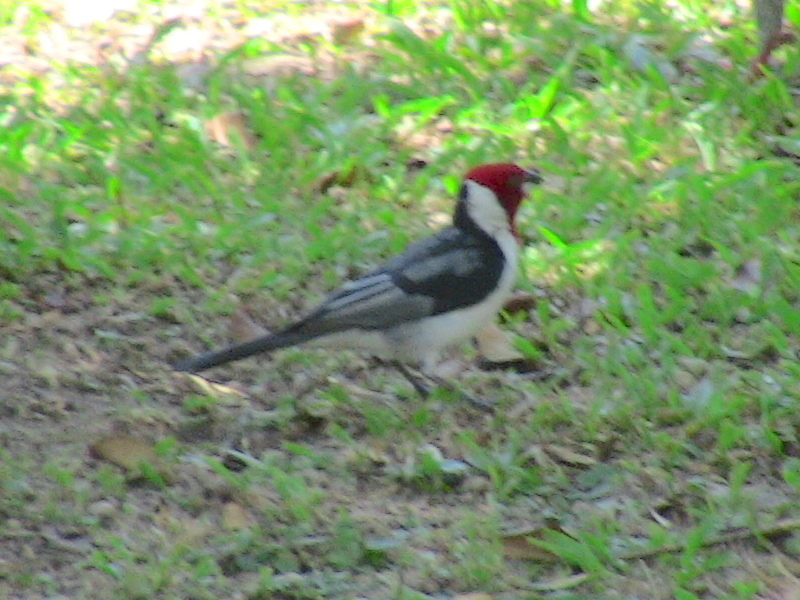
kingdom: Animalia
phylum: Chordata
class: Aves
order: Passeriformes
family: Thraupidae
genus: Paroaria
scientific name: Paroaria dominicana
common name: Red-cowled cardinal
